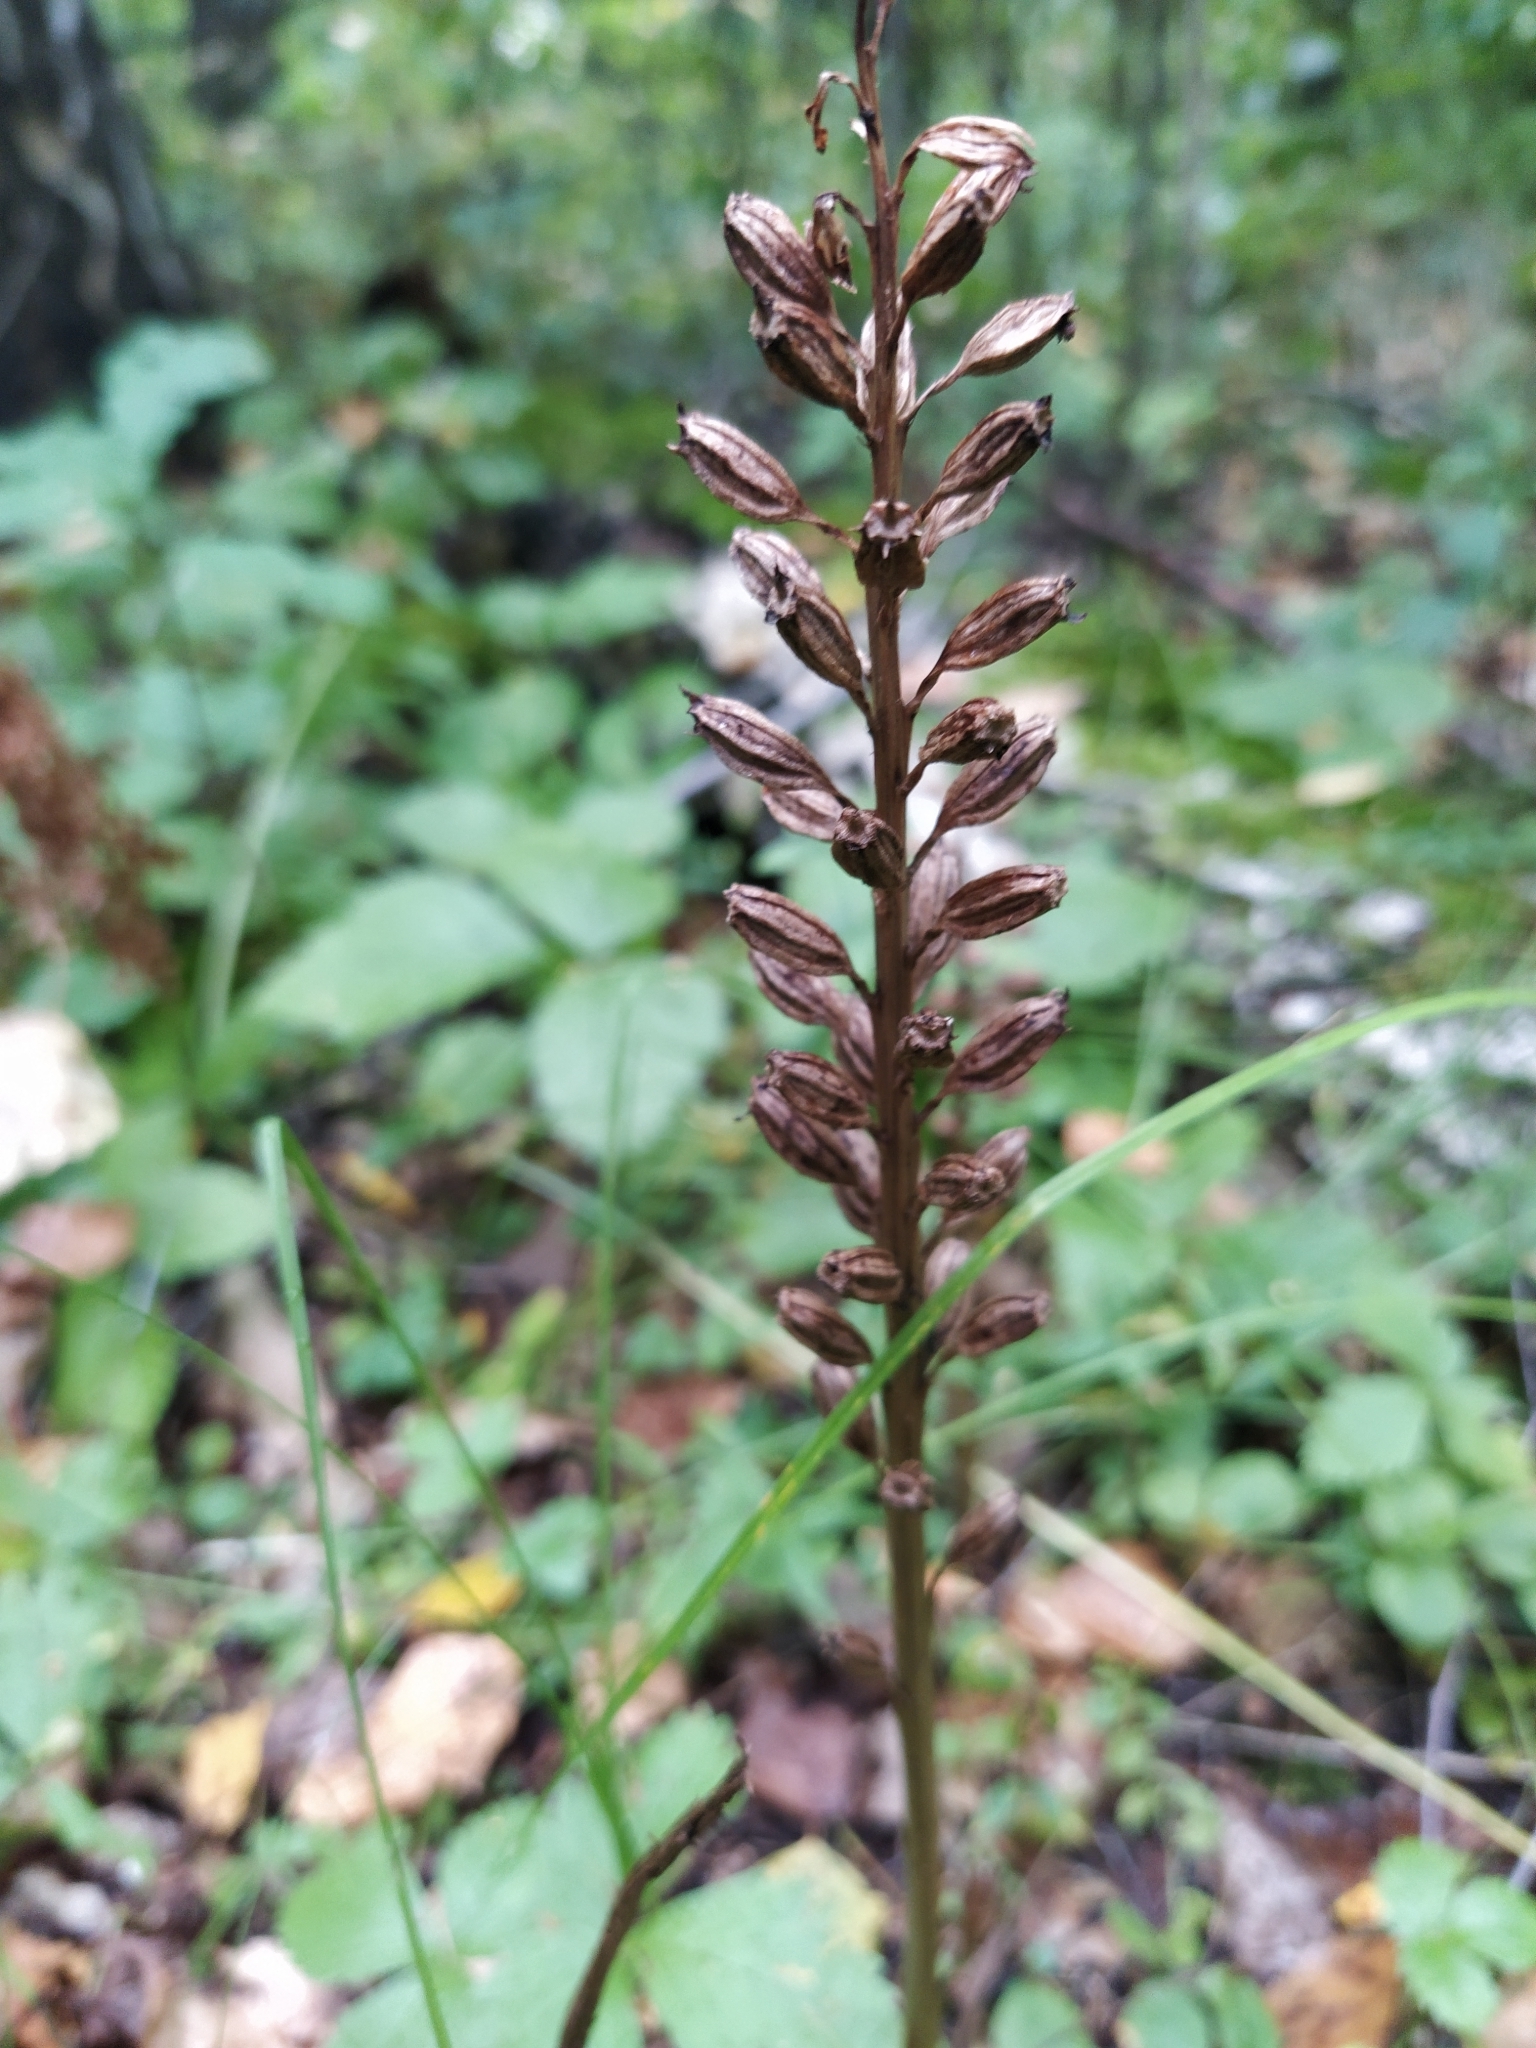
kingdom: Plantae
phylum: Tracheophyta
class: Liliopsida
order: Asparagales
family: Orchidaceae
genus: Neottia
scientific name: Neottia nidus-avis
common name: Bird's-nest orchid
